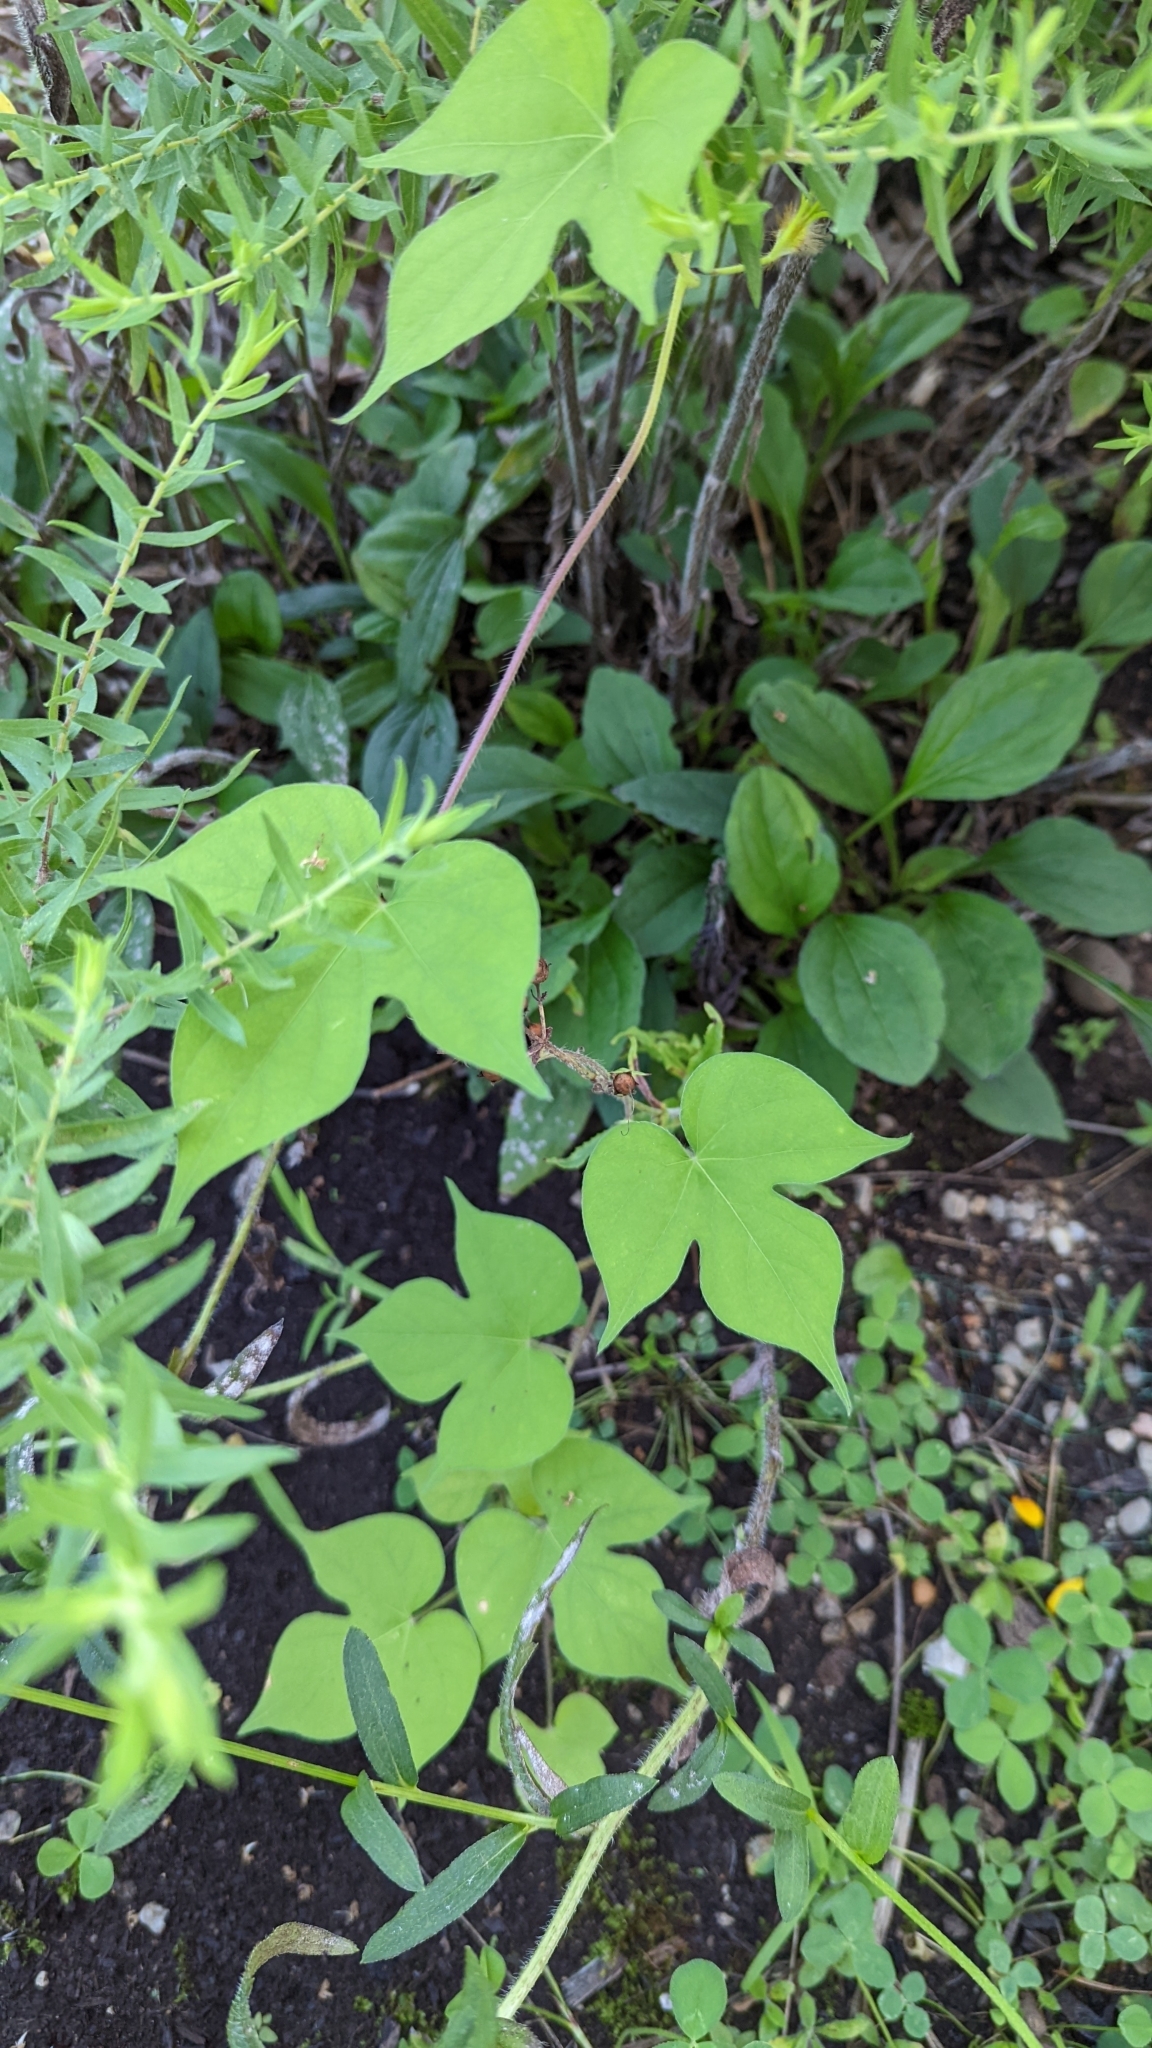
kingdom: Plantae
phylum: Tracheophyta
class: Magnoliopsida
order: Solanales
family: Convolvulaceae
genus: Ipomoea
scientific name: Ipomoea hederacea
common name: Ivy-leaved morning-glory
